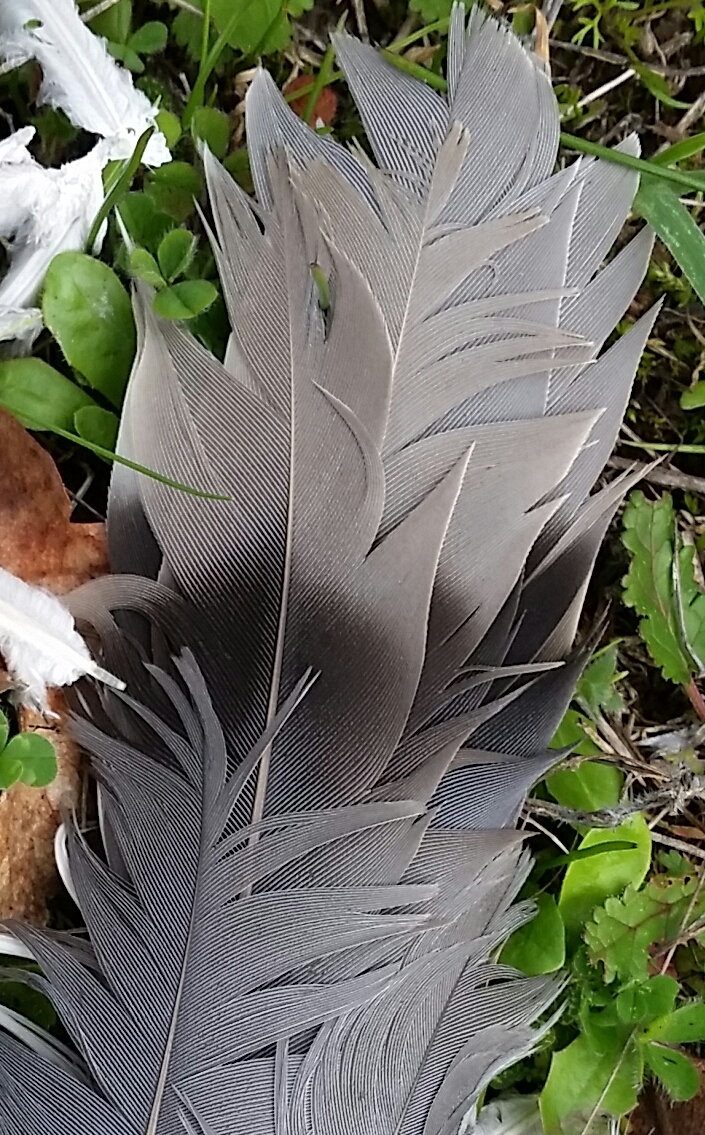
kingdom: Animalia
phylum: Chordata
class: Aves
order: Columbiformes
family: Columbidae
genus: Patagioenas
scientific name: Patagioenas fasciata
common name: Band-tailed pigeon
